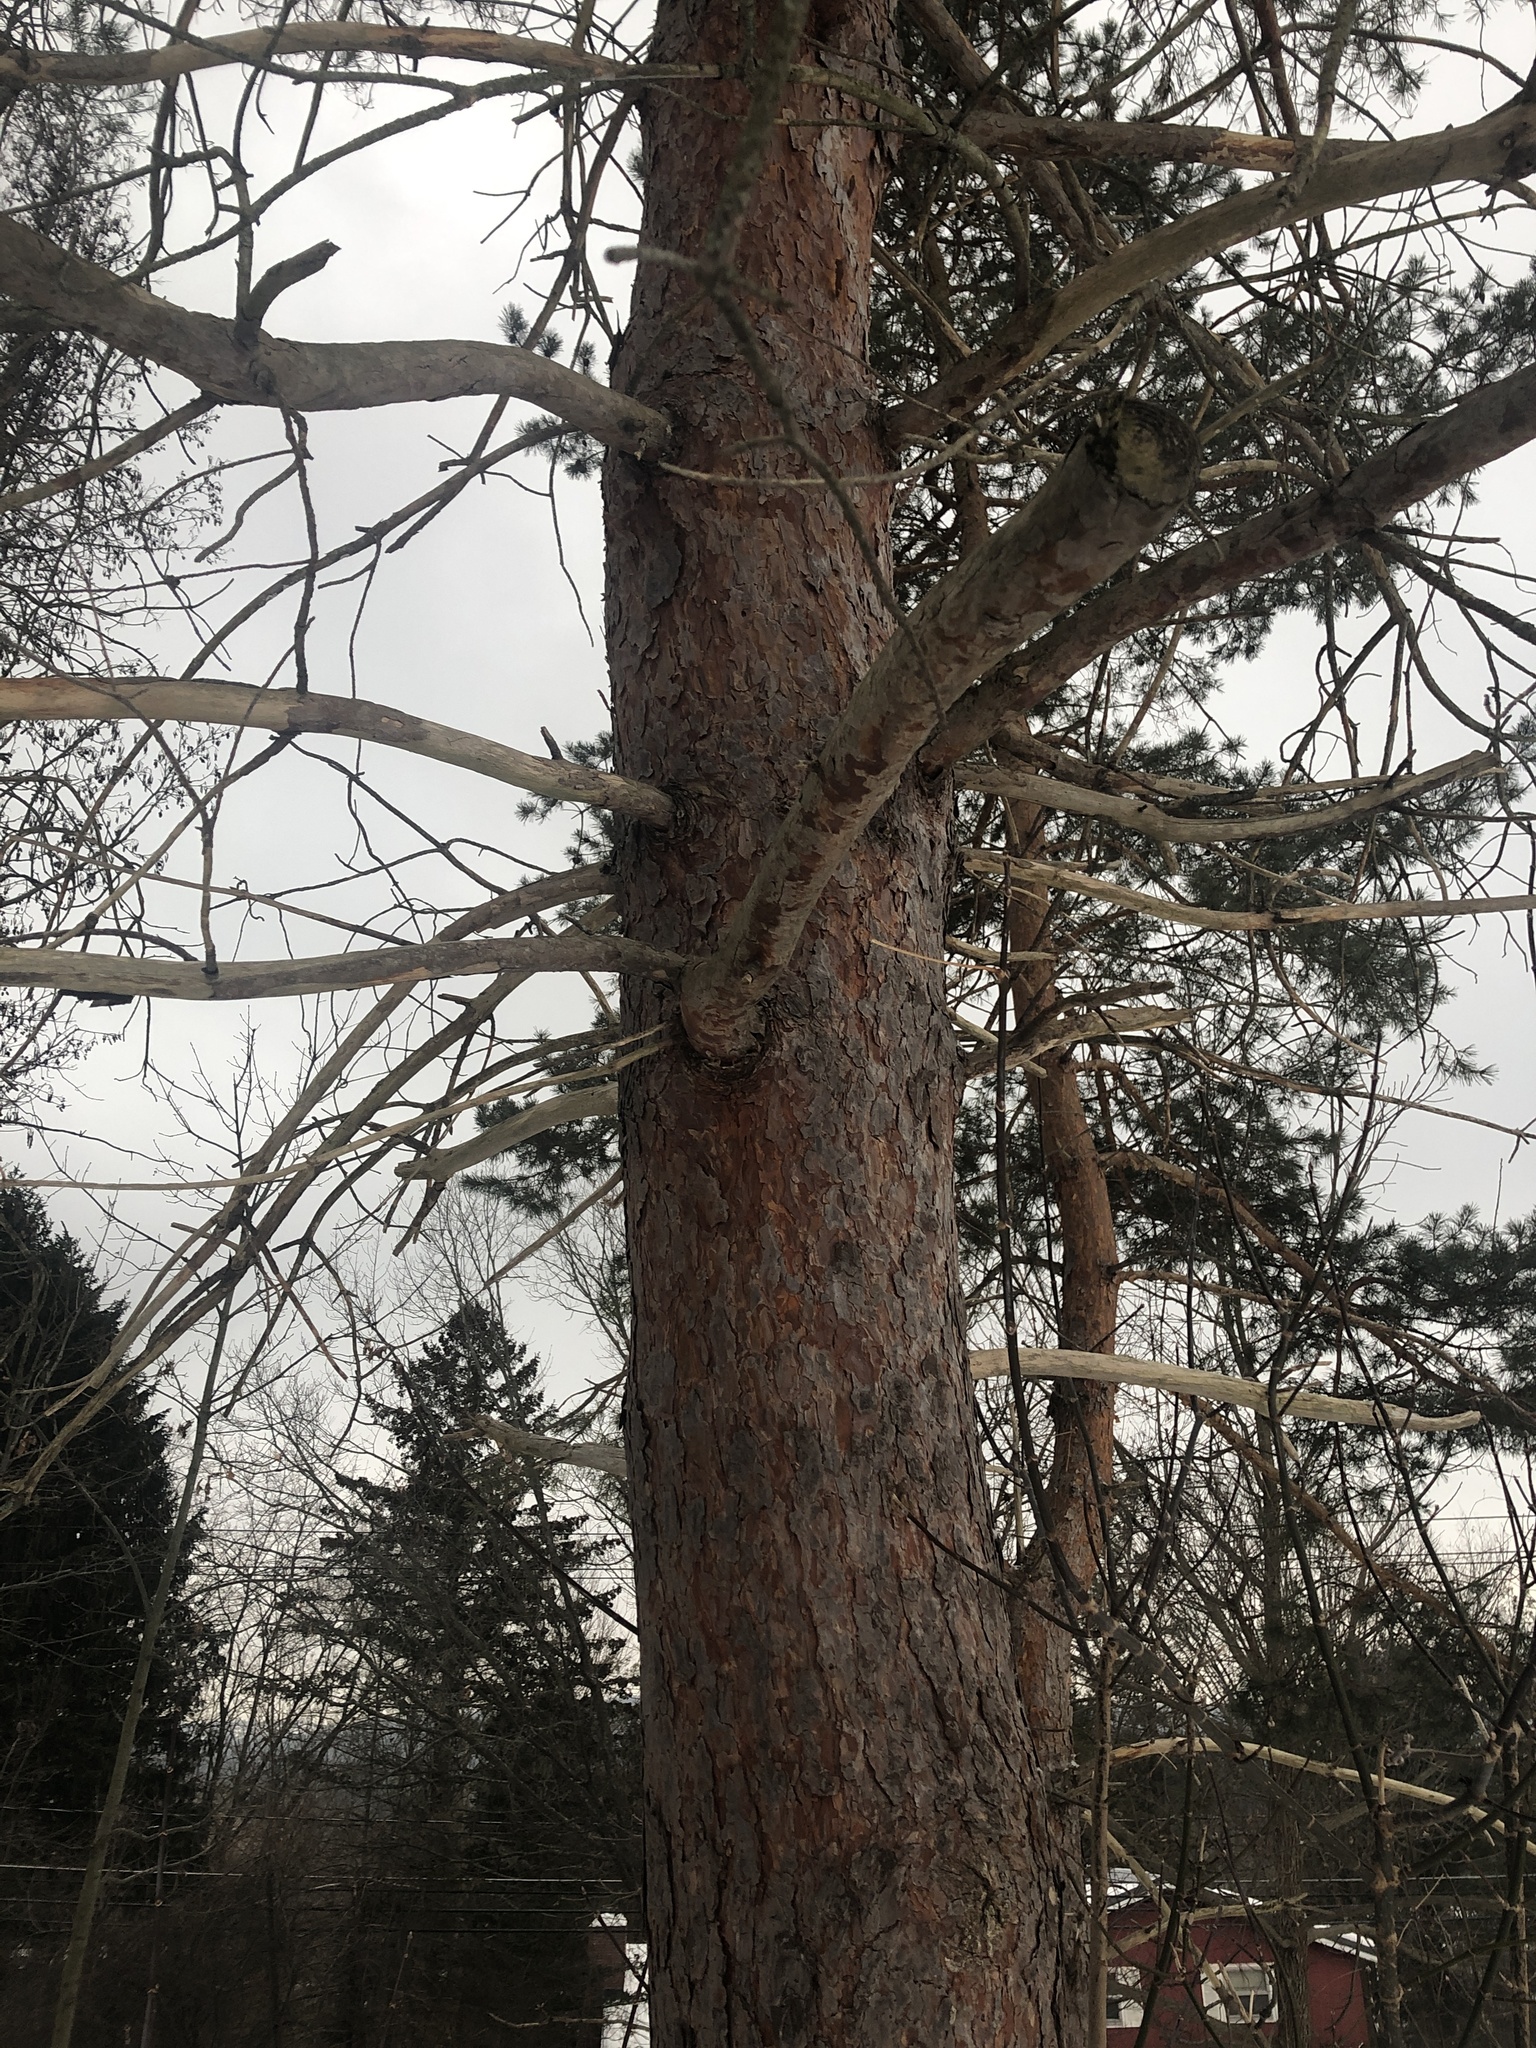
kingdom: Plantae
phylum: Tracheophyta
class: Pinopsida
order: Pinales
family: Pinaceae
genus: Pinus
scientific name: Pinus sylvestris
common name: Scots pine
